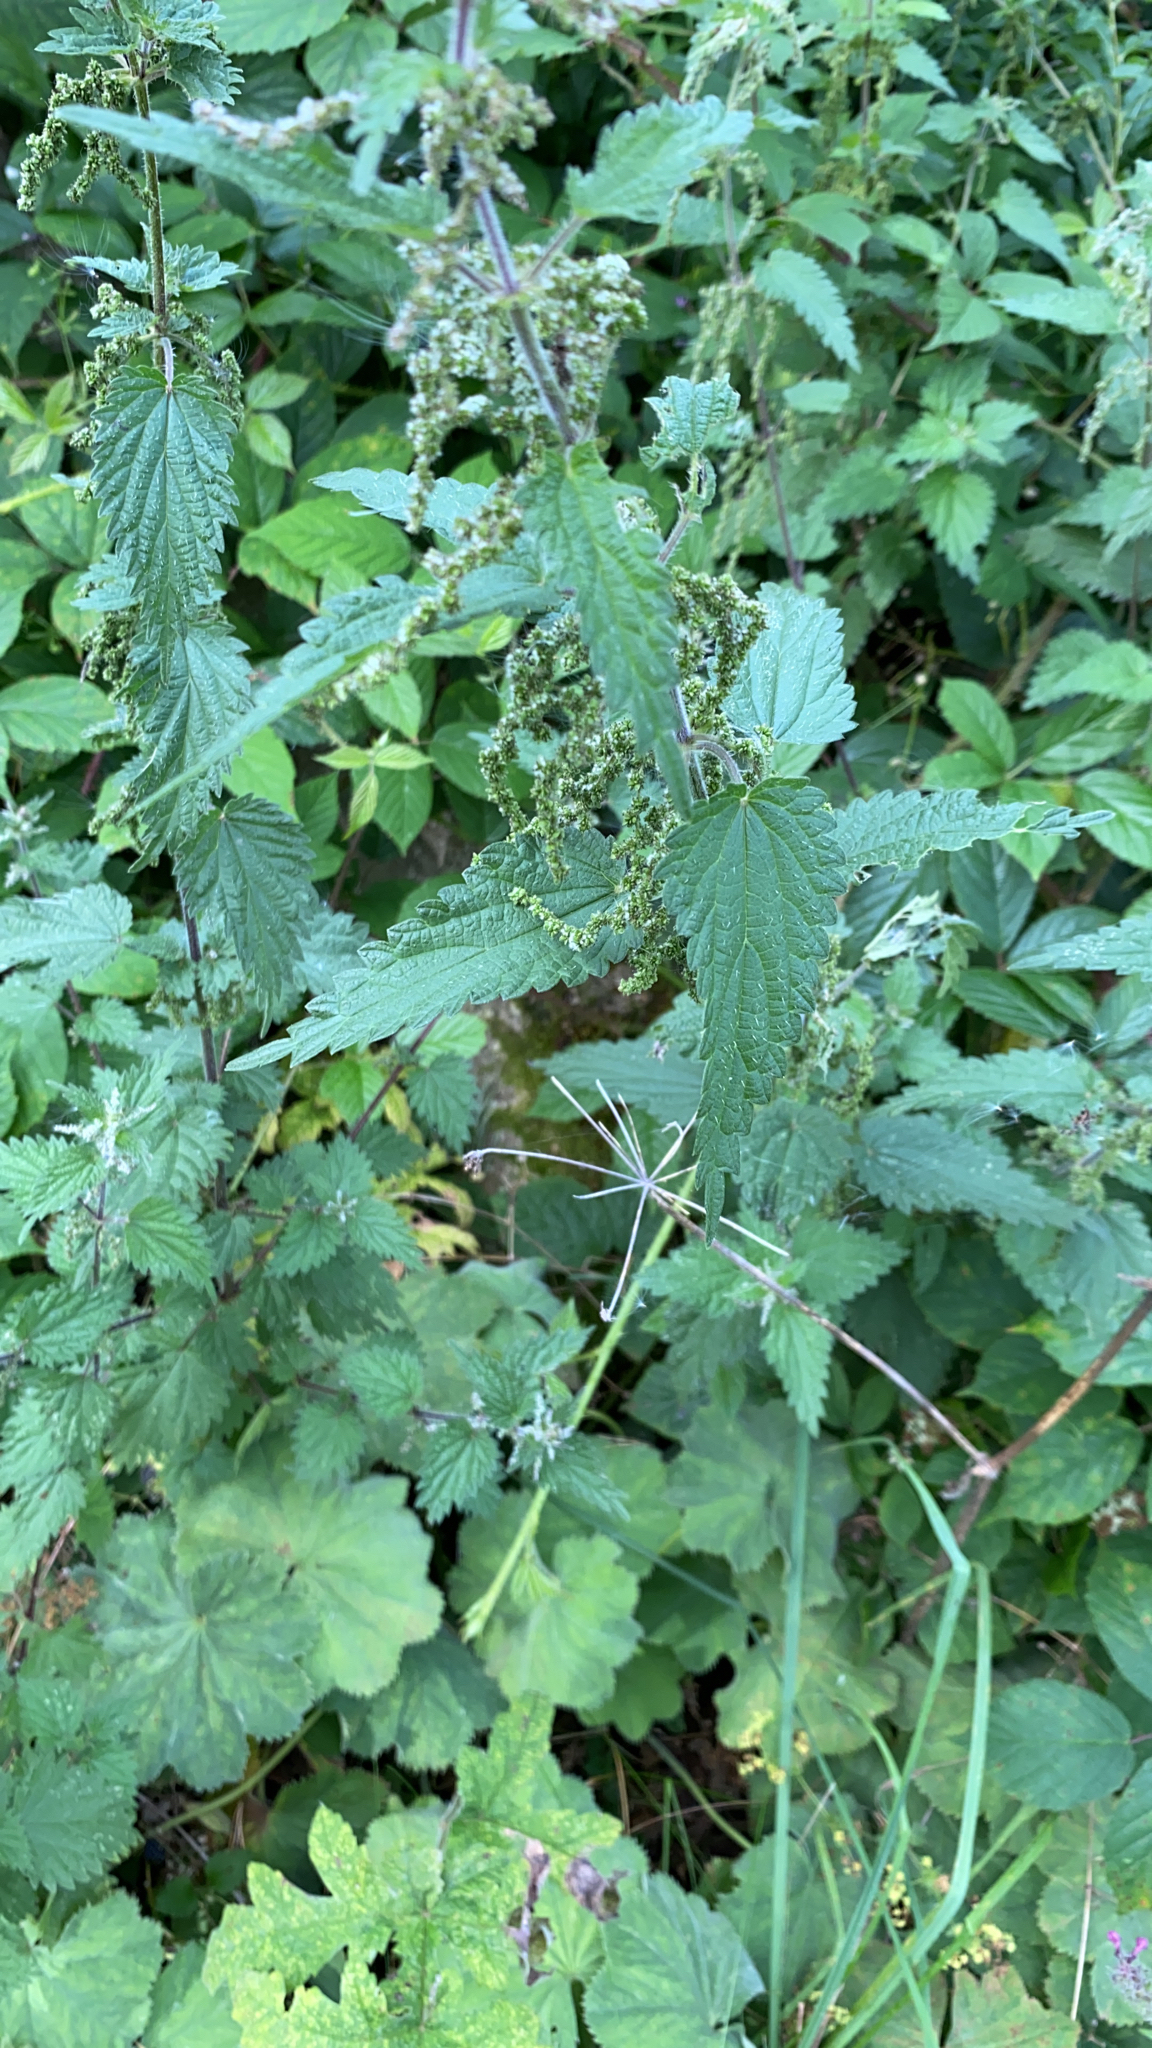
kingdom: Plantae
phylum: Tracheophyta
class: Magnoliopsida
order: Rosales
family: Urticaceae
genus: Urtica
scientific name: Urtica dioica
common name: Common nettle
